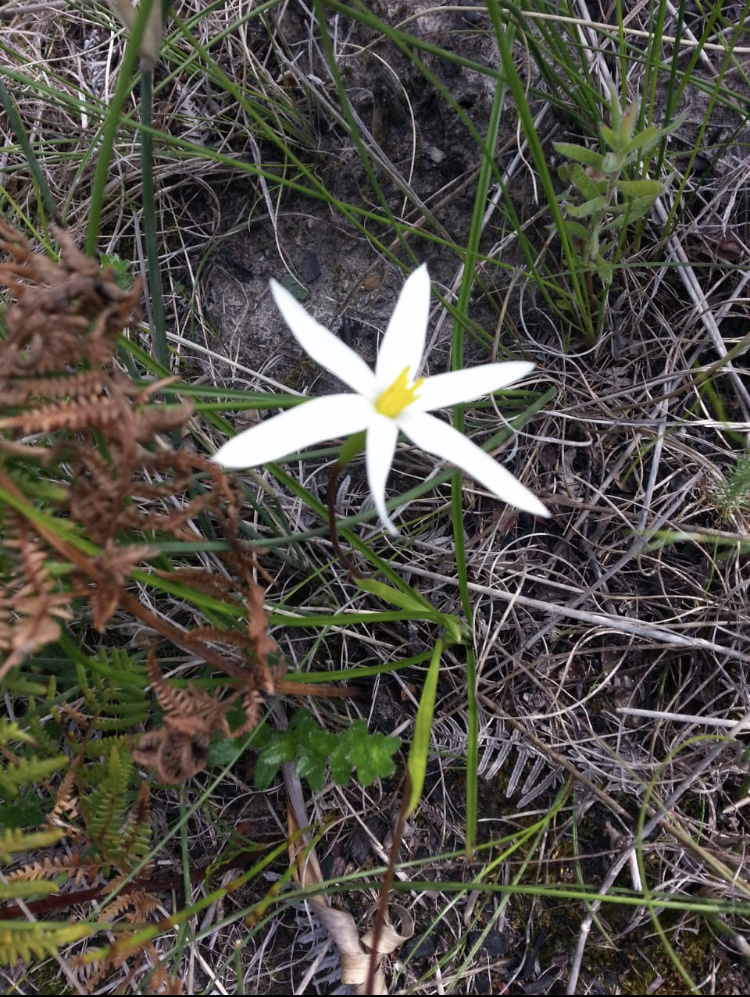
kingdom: Plantae
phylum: Tracheophyta
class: Liliopsida
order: Asparagales
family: Hypoxidaceae
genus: Pauridia
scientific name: Pauridia capensis
